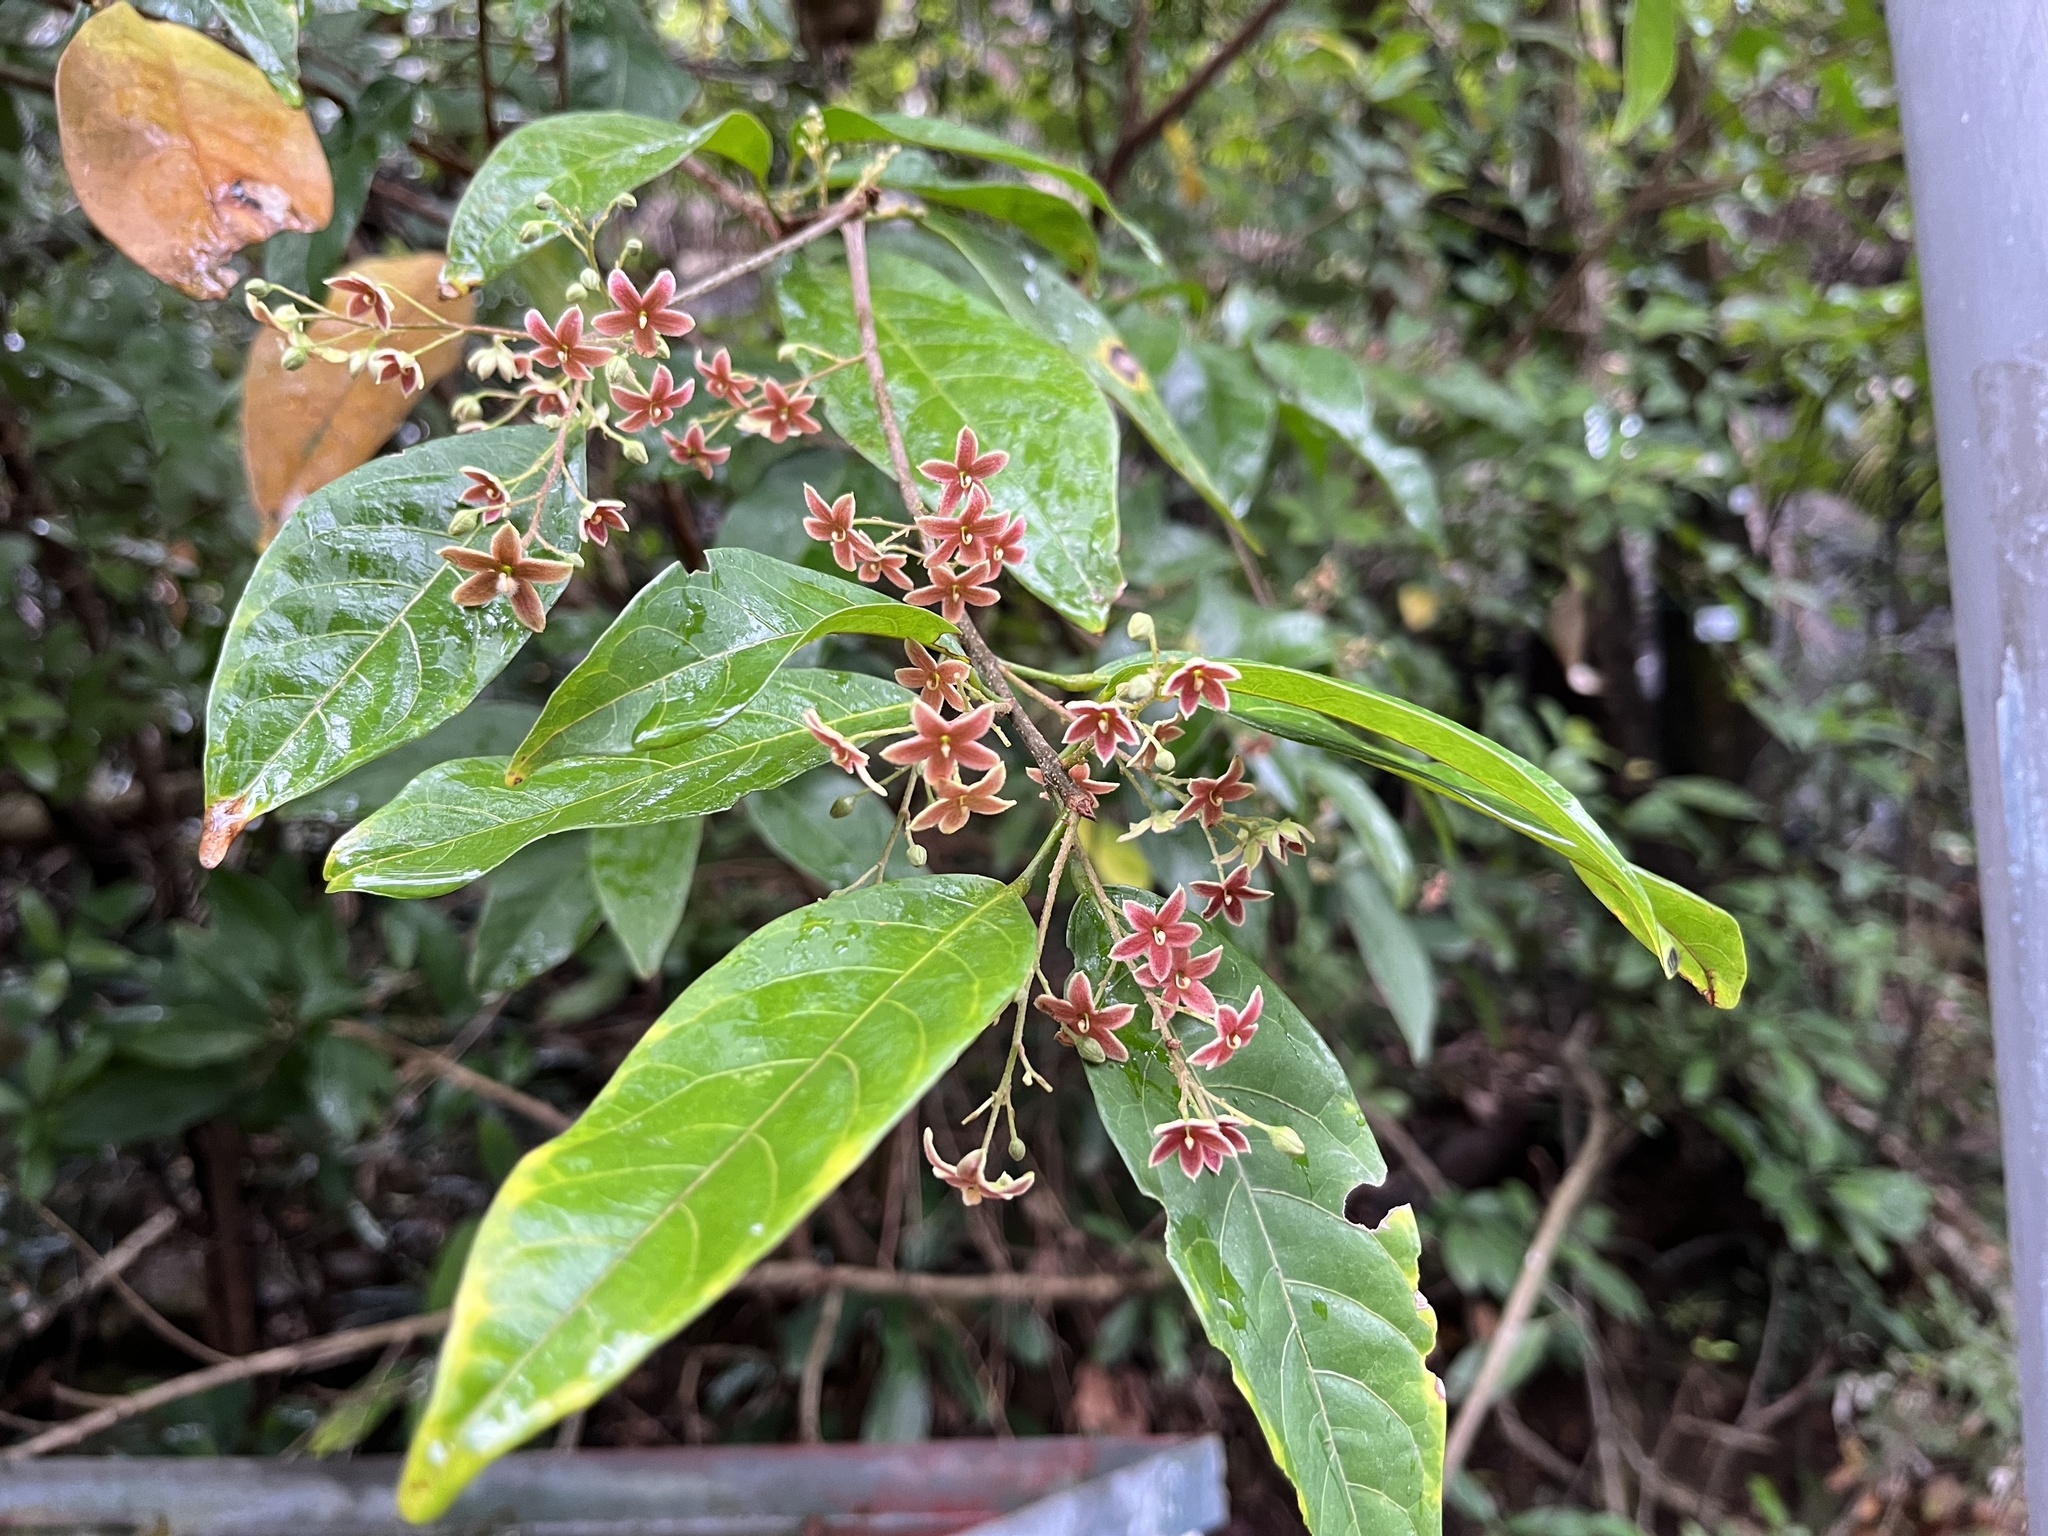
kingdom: Plantae
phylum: Tracheophyta
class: Magnoliopsida
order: Malvales
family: Malvaceae
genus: Sterculia
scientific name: Sterculia lanceolata
